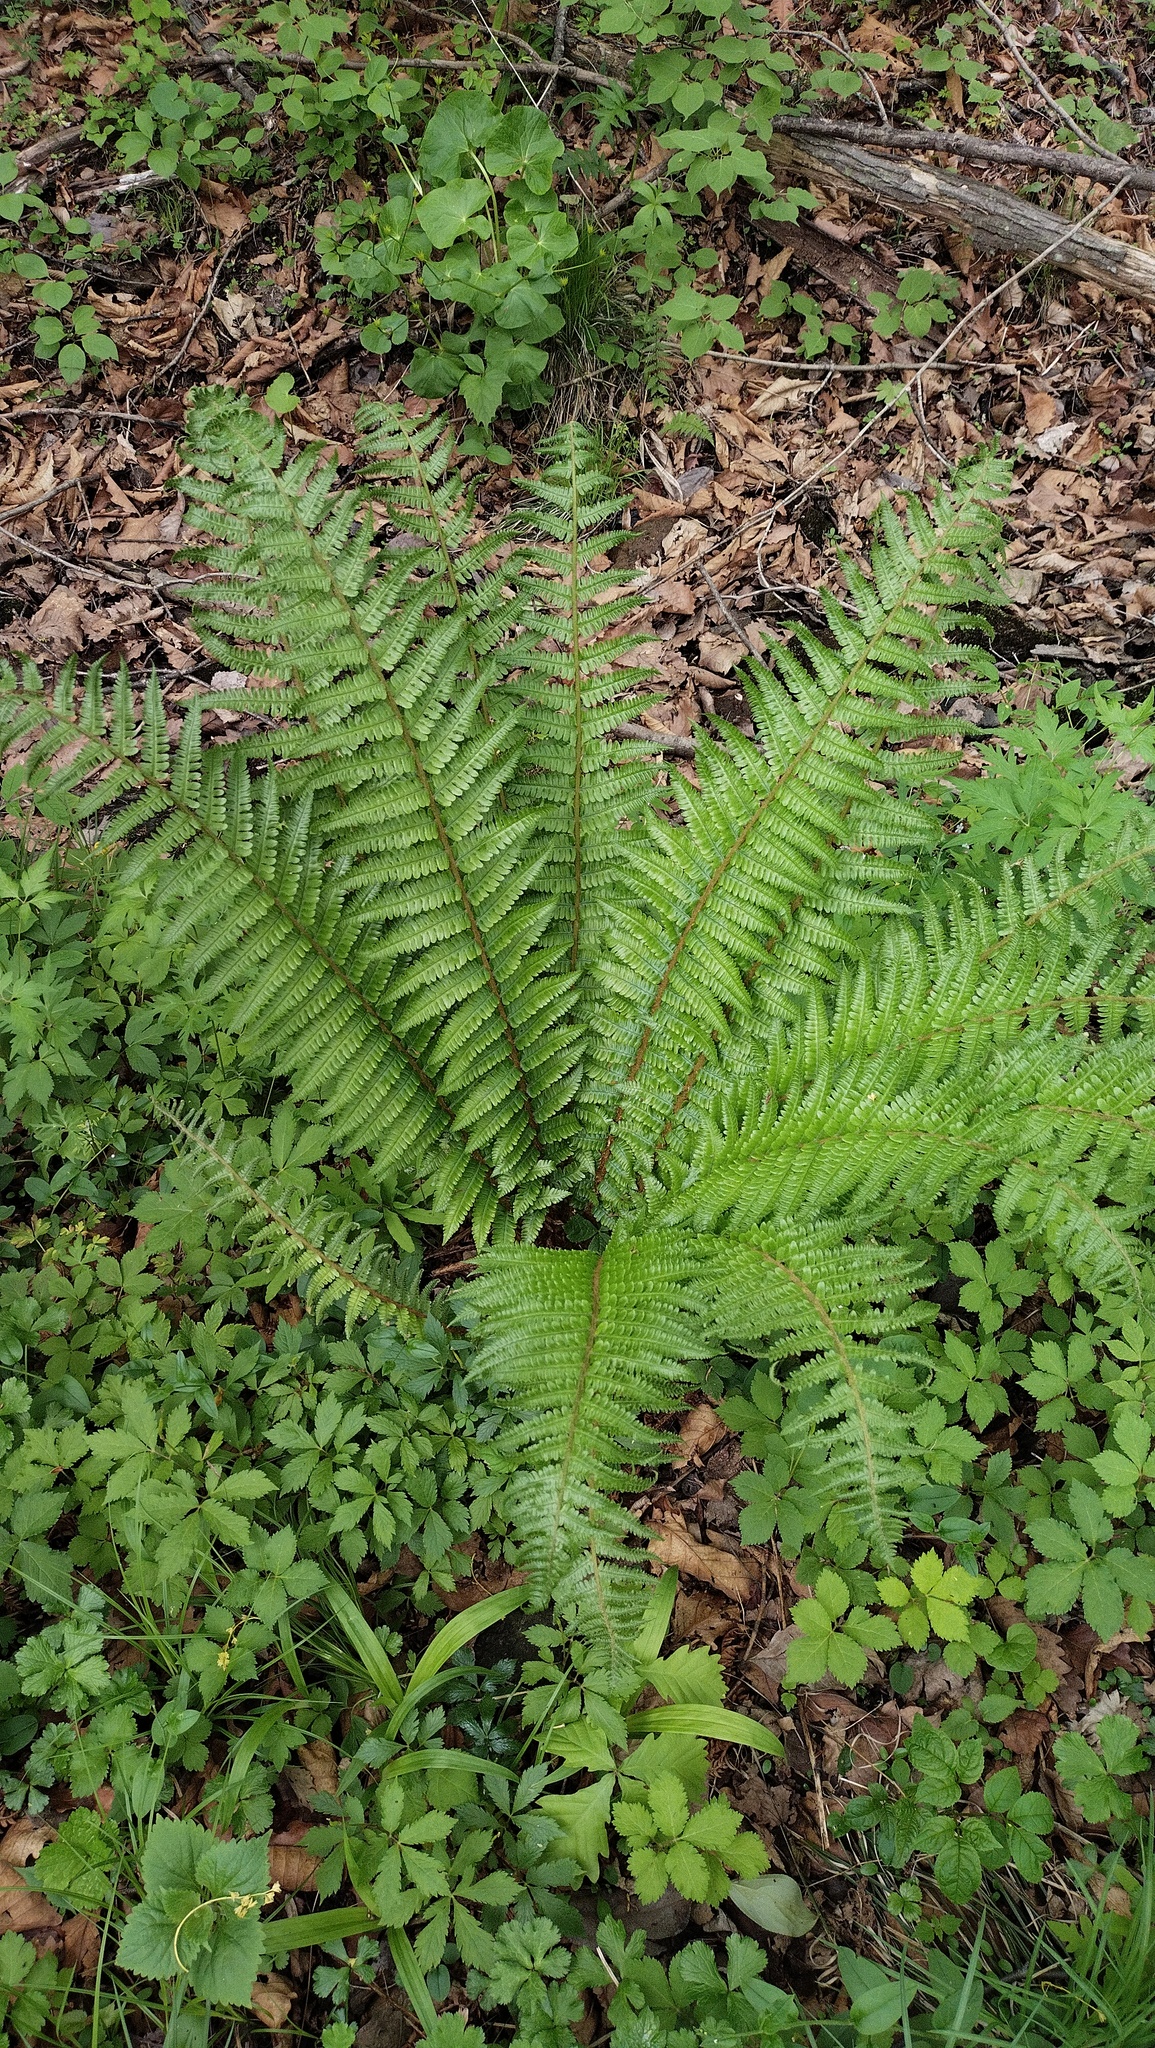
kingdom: Plantae
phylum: Tracheophyta
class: Polypodiopsida
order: Polypodiales
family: Dryopteridaceae
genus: Dryopteris
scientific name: Dryopteris crassirhizoma
